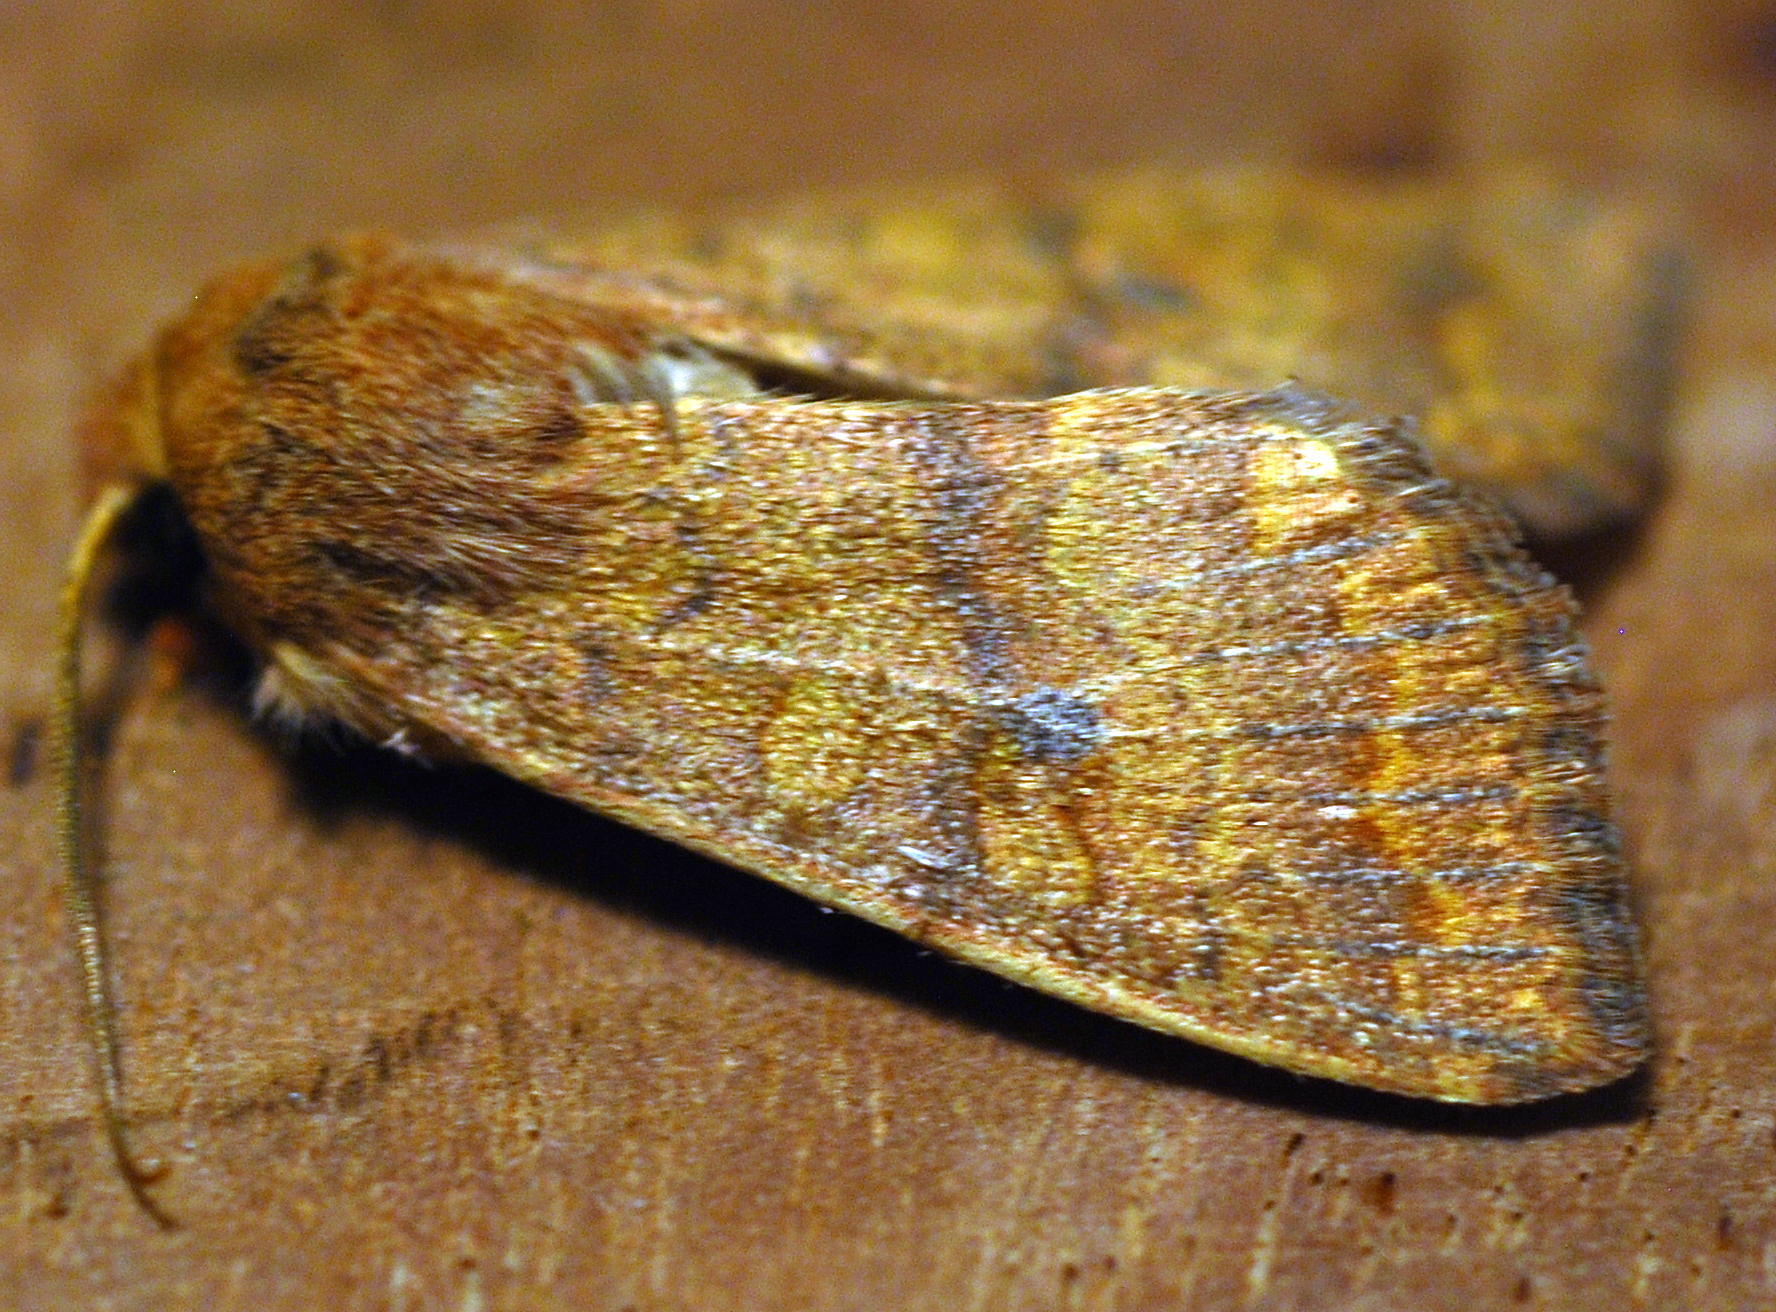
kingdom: Animalia
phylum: Arthropoda
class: Insecta
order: Lepidoptera
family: Noctuidae
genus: Agrochola
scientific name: Agrochola bicolorago
